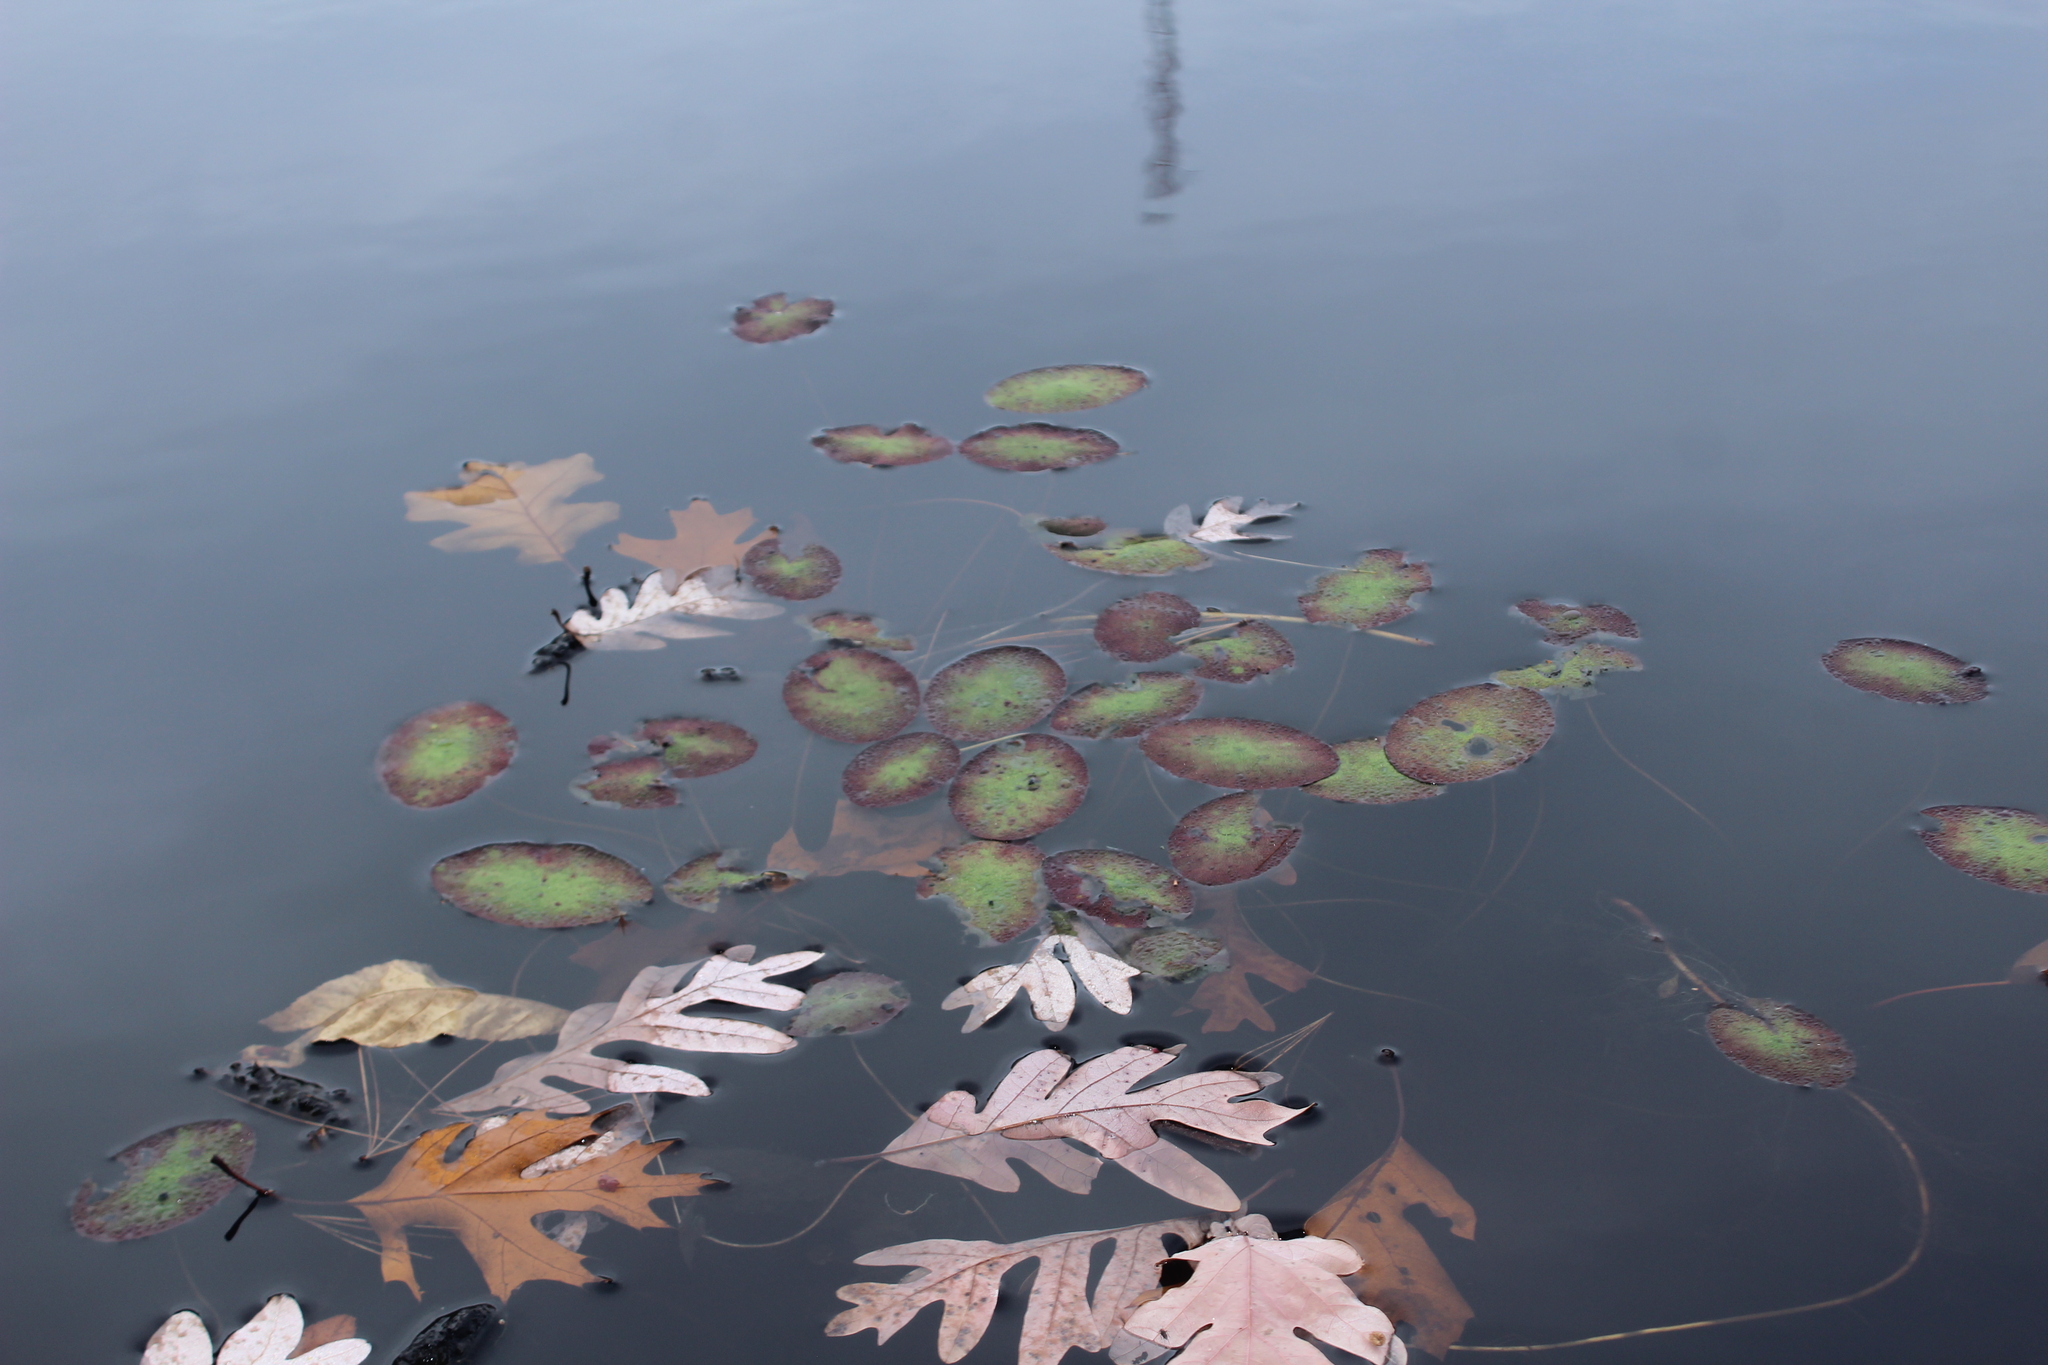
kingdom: Plantae
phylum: Tracheophyta
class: Magnoliopsida
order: Nymphaeales
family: Cabombaceae
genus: Brasenia
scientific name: Brasenia schreberi
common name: Water-shield
